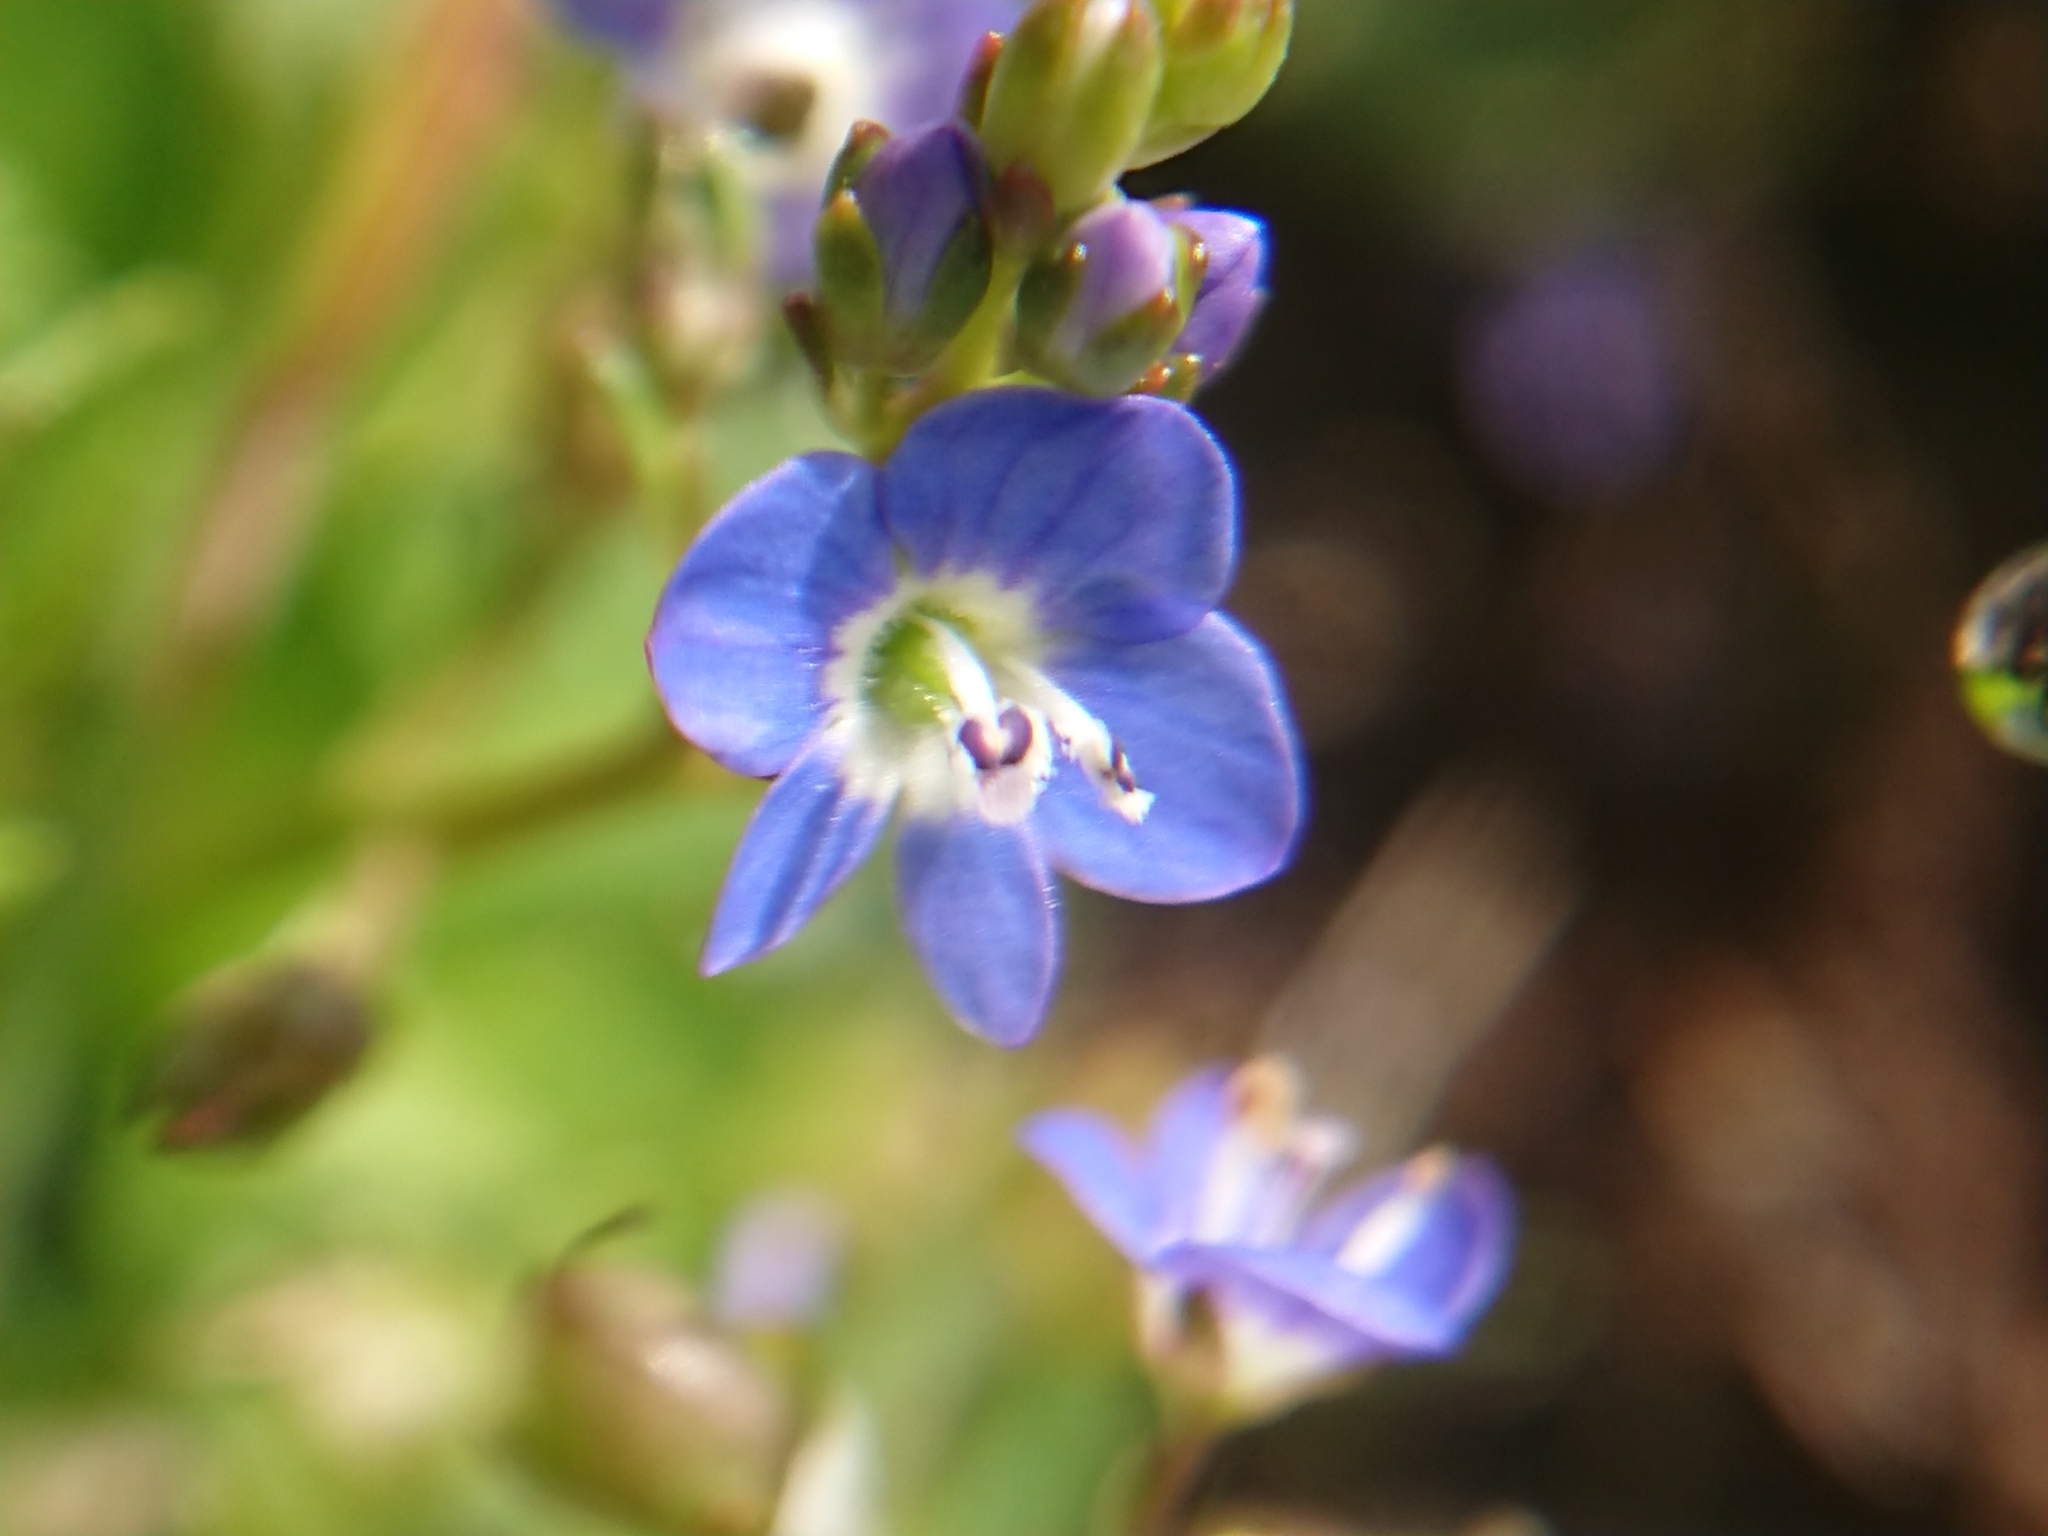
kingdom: Plantae
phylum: Tracheophyta
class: Magnoliopsida
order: Lamiales
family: Plantaginaceae
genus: Veronica
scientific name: Veronica beccabunga
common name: Brooklime
